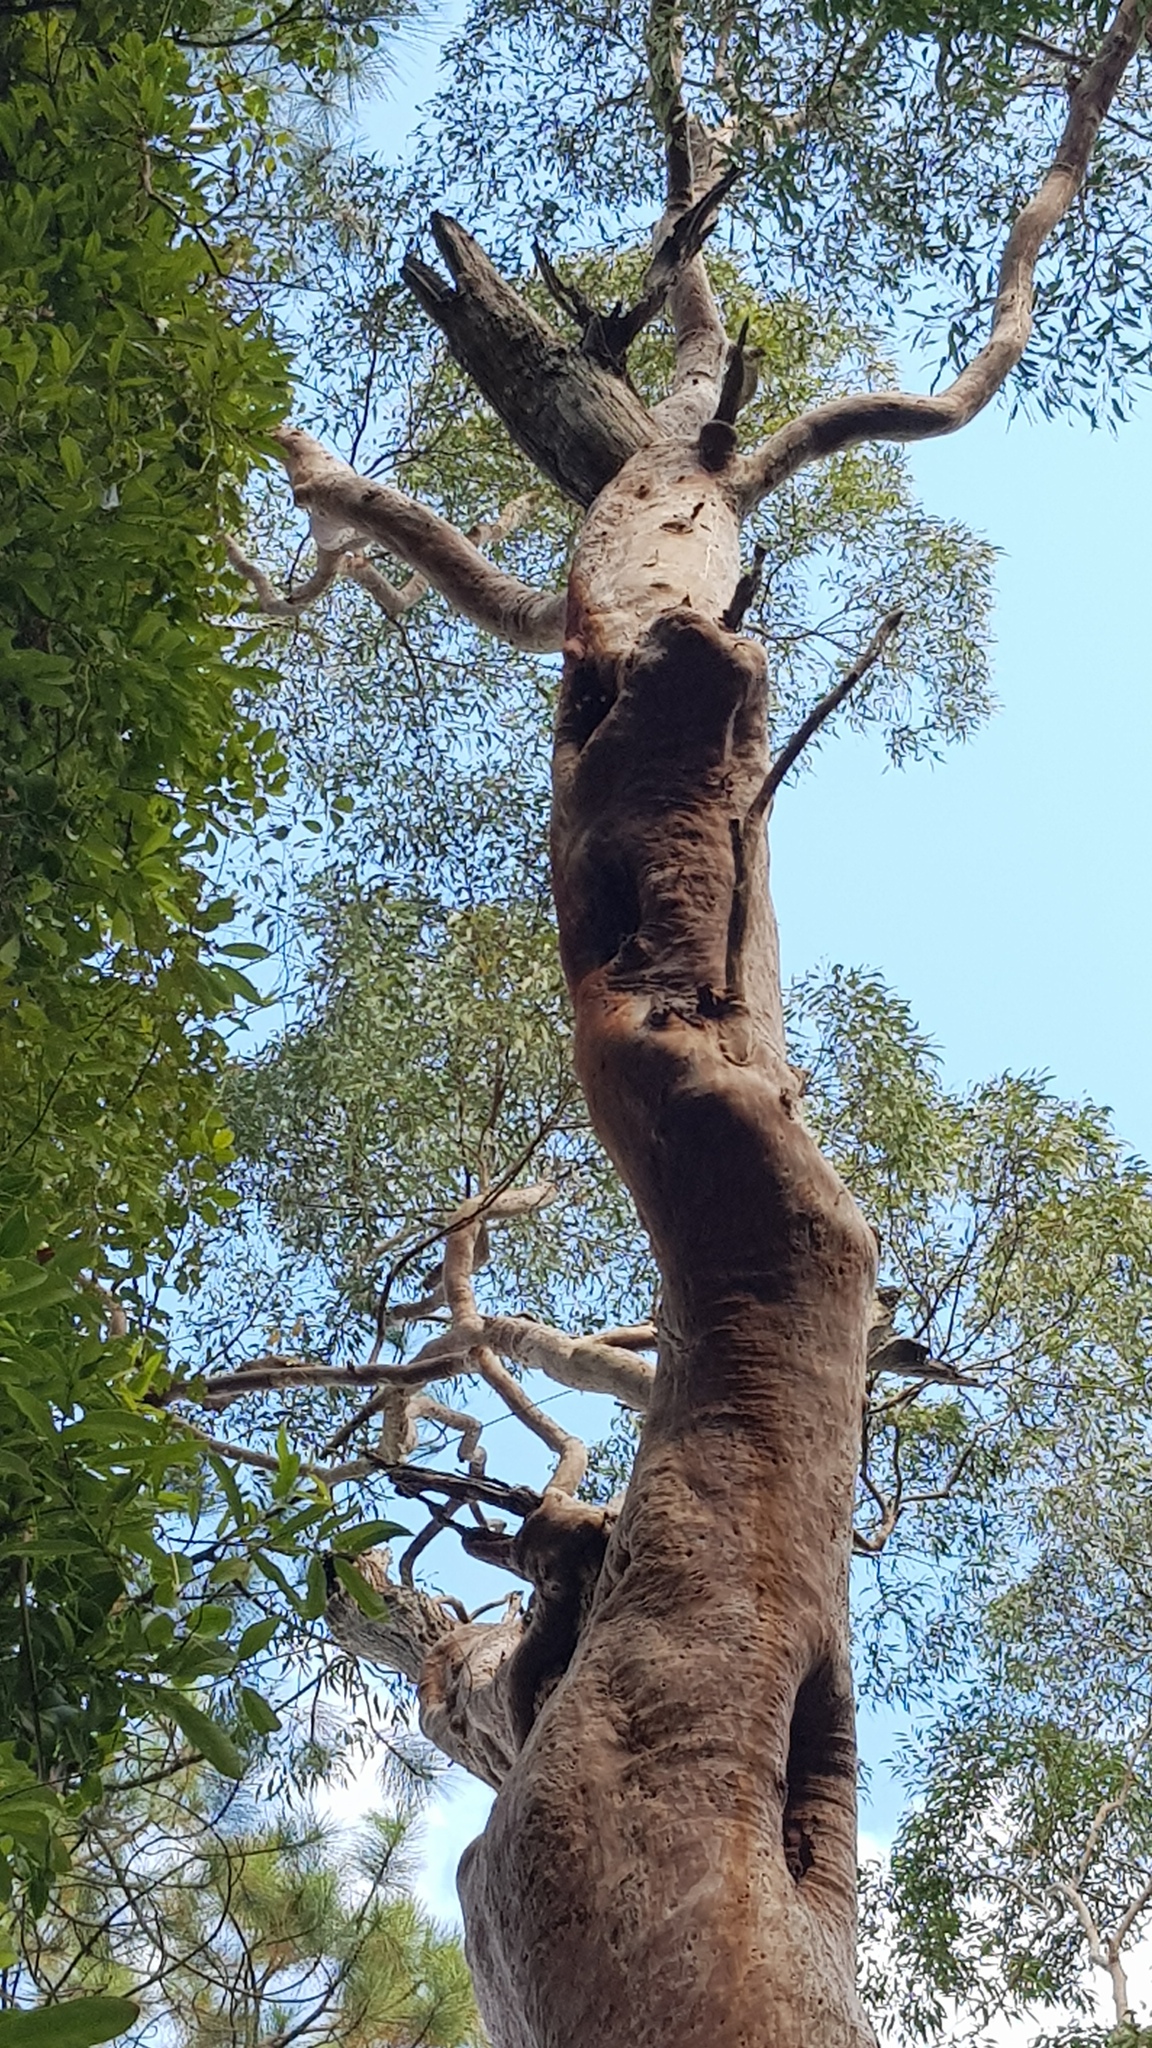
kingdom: Animalia
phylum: Arthropoda
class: Insecta
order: Hymenoptera
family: Apidae
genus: Apis
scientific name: Apis mellifera
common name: Honey bee
